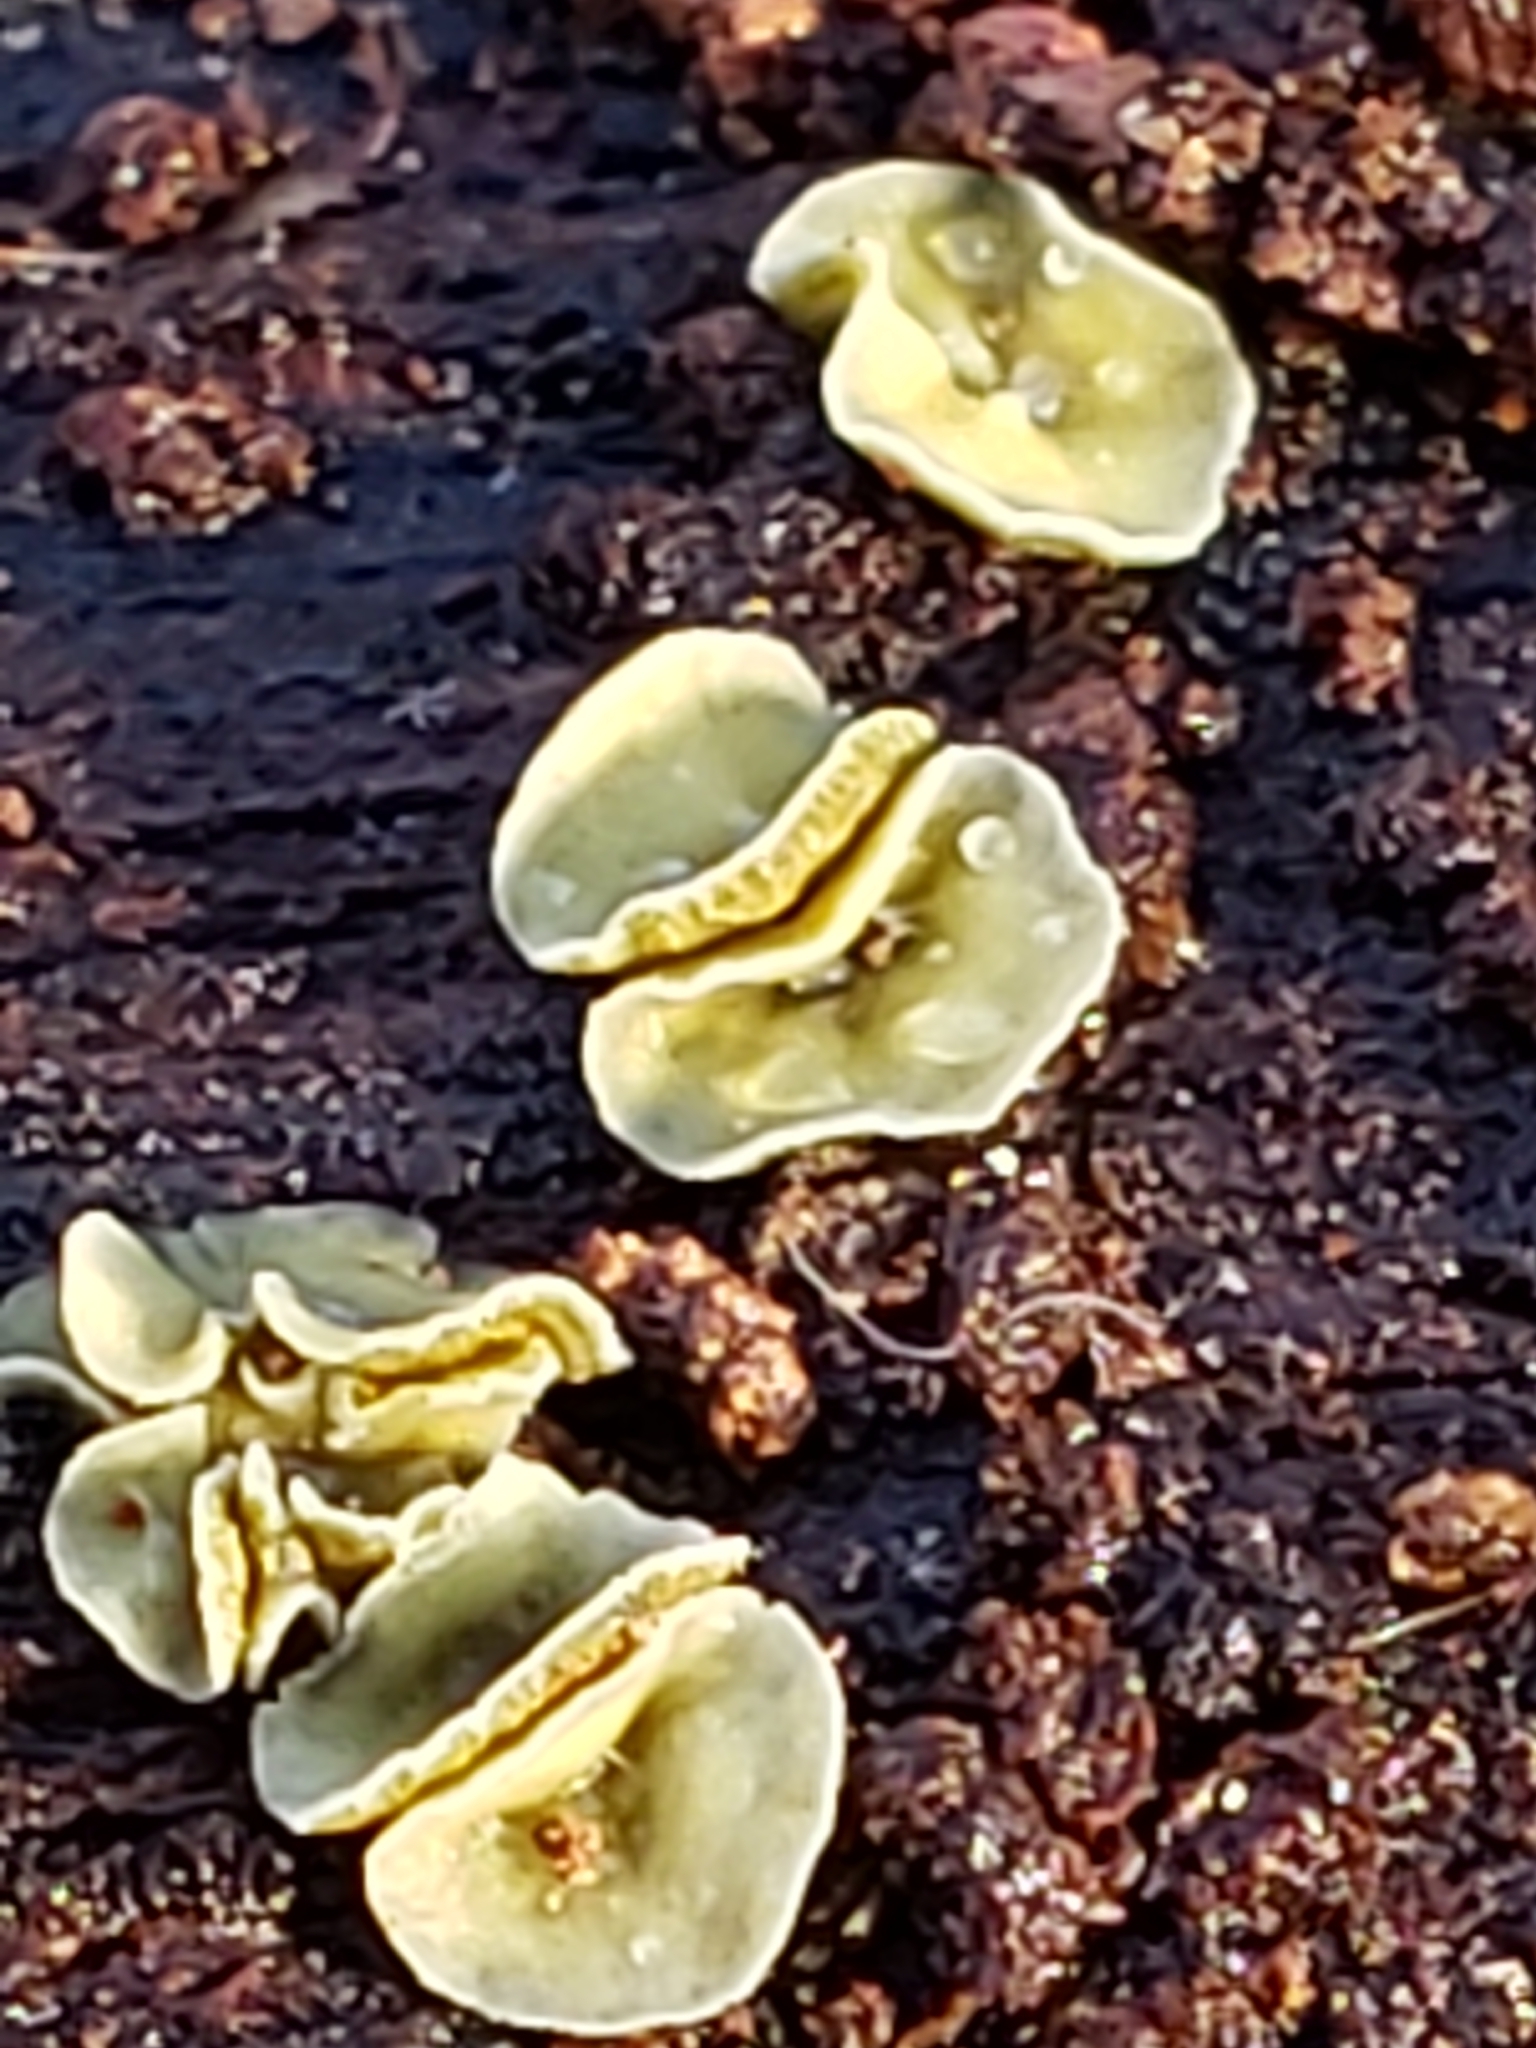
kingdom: Fungi
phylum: Ascomycota
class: Leotiomycetes
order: Helotiales
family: Chlorospleniaceae
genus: Chlorosplenium
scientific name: Chlorosplenium chlora
